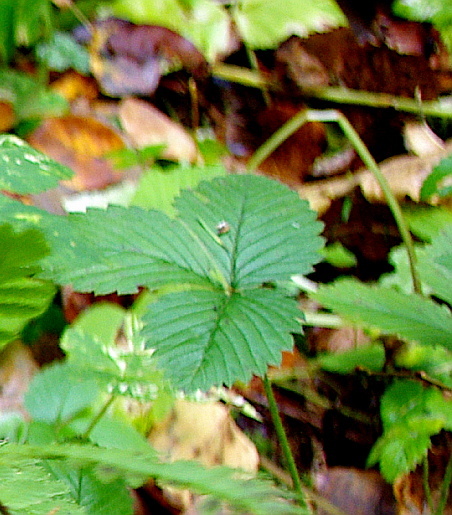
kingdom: Plantae
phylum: Tracheophyta
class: Magnoliopsida
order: Rosales
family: Rosaceae
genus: Fragaria
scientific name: Fragaria vesca
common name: Wild strawberry
